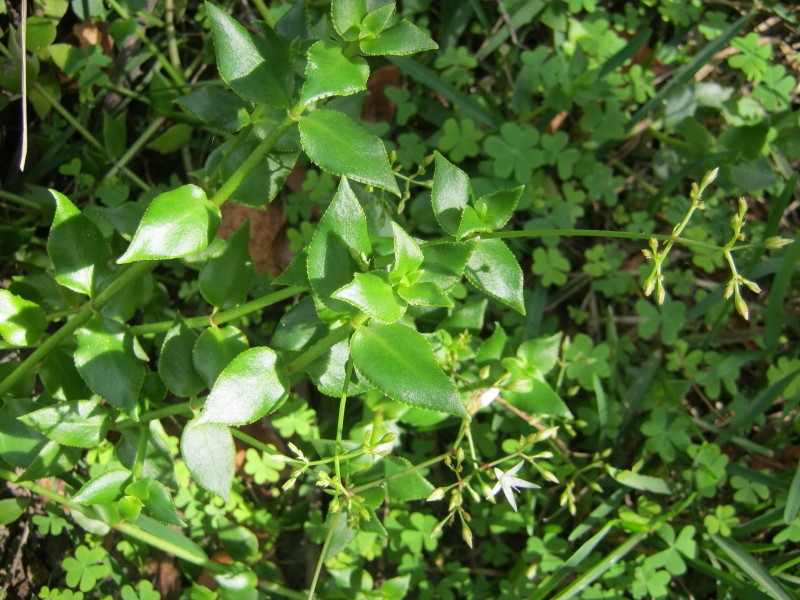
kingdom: Plantae
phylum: Tracheophyta
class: Magnoliopsida
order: Saxifragales
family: Crassulaceae
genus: Crassula
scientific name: Crassula sarmentosa
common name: Jade-tree
